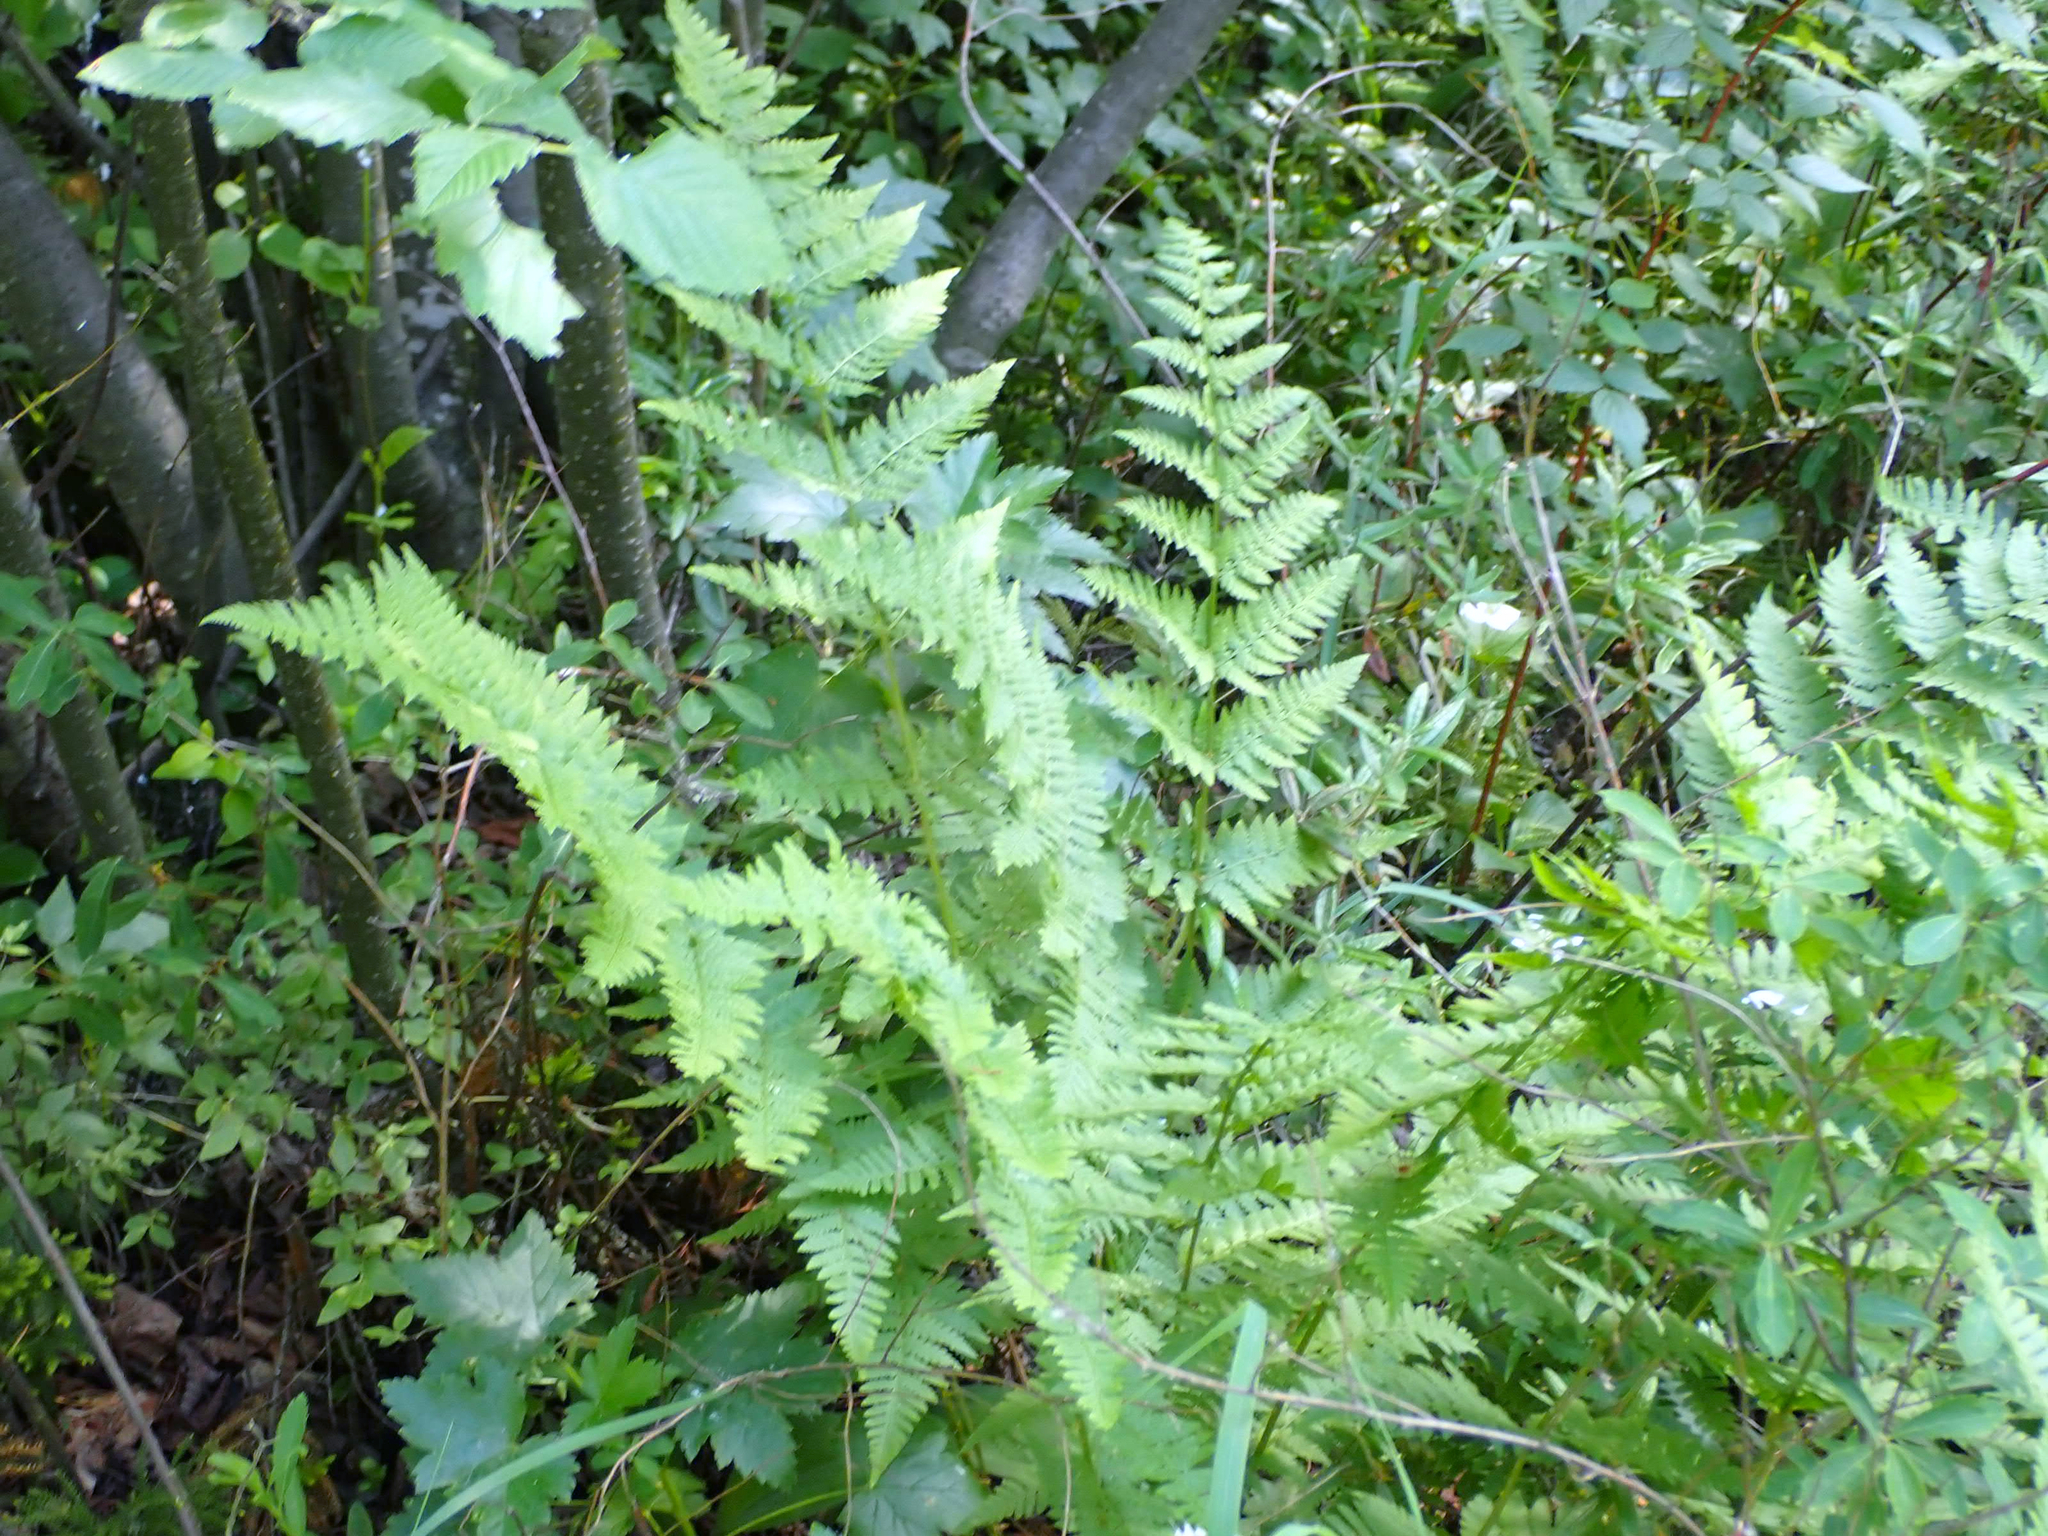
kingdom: Plantae
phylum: Tracheophyta
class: Polypodiopsida
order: Polypodiales
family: Dryopteridaceae
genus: Dryopteris
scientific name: Dryopteris carthusiana
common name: Narrow buckler-fern
